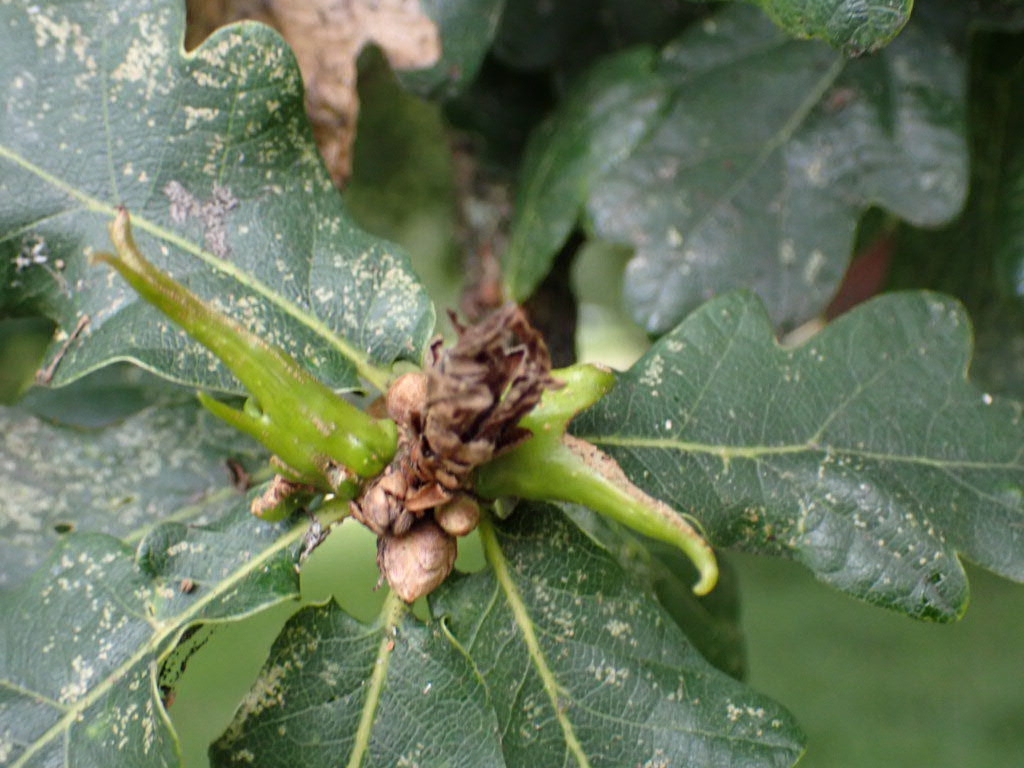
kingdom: Animalia
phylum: Arthropoda
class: Insecta
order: Hymenoptera
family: Cynipidae
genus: Andricus
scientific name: Andricus aries
